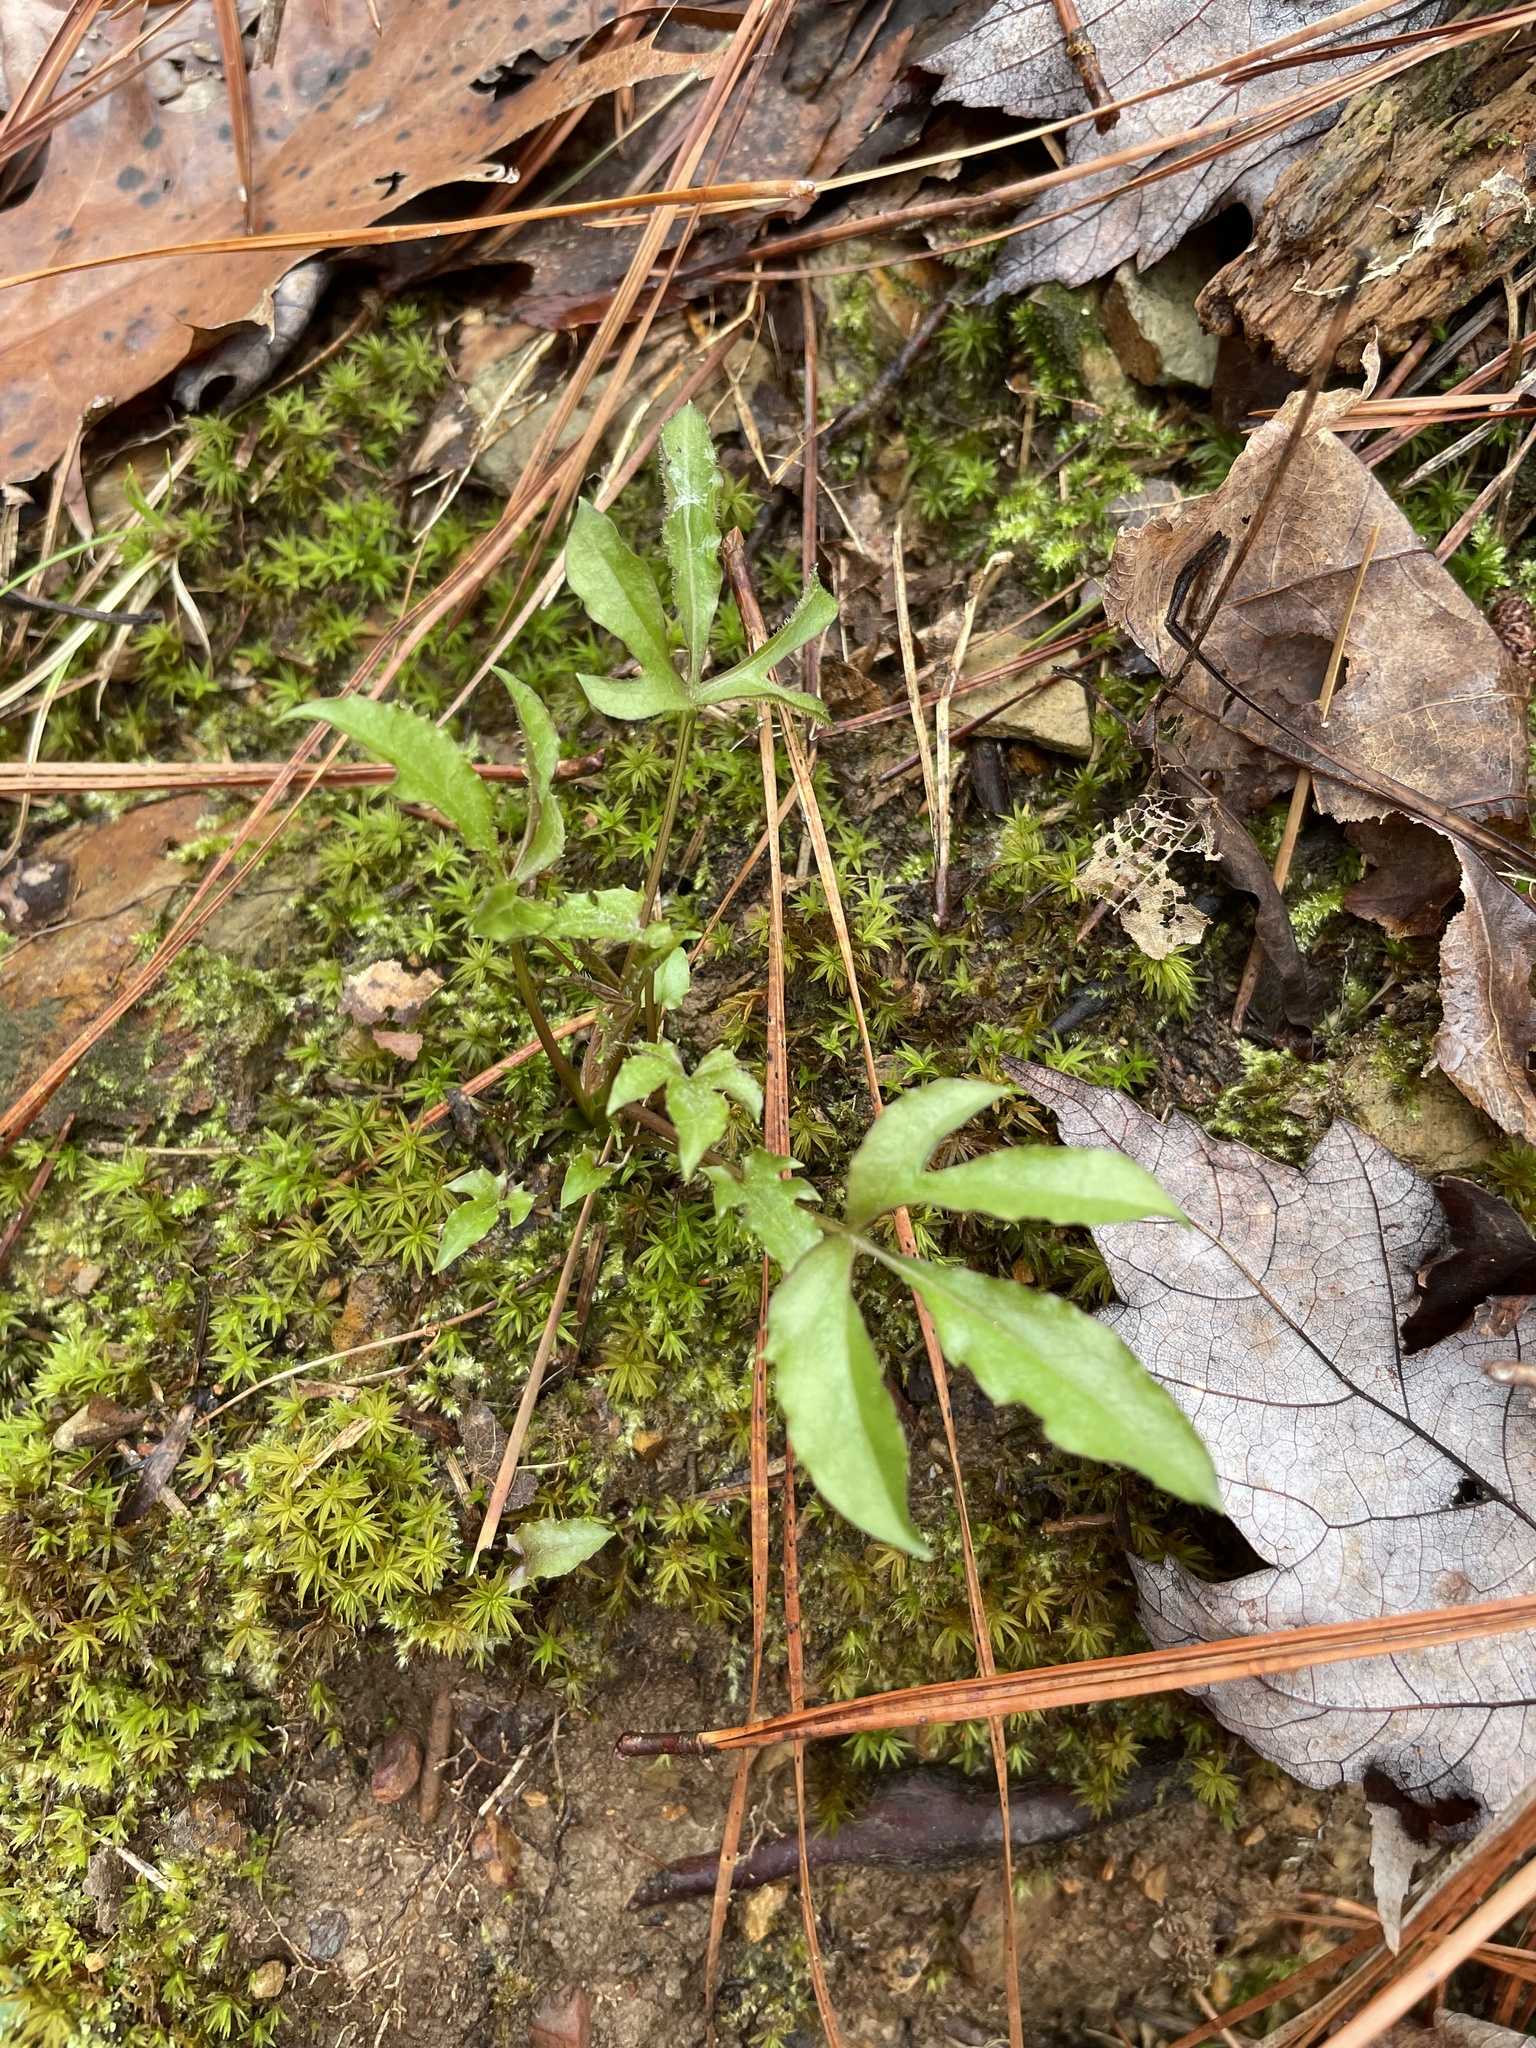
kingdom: Plantae
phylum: Tracheophyta
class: Magnoliopsida
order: Asterales
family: Asteraceae
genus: Nabalus
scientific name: Nabalus trifoliolatus
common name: Gall-of-the-earth
